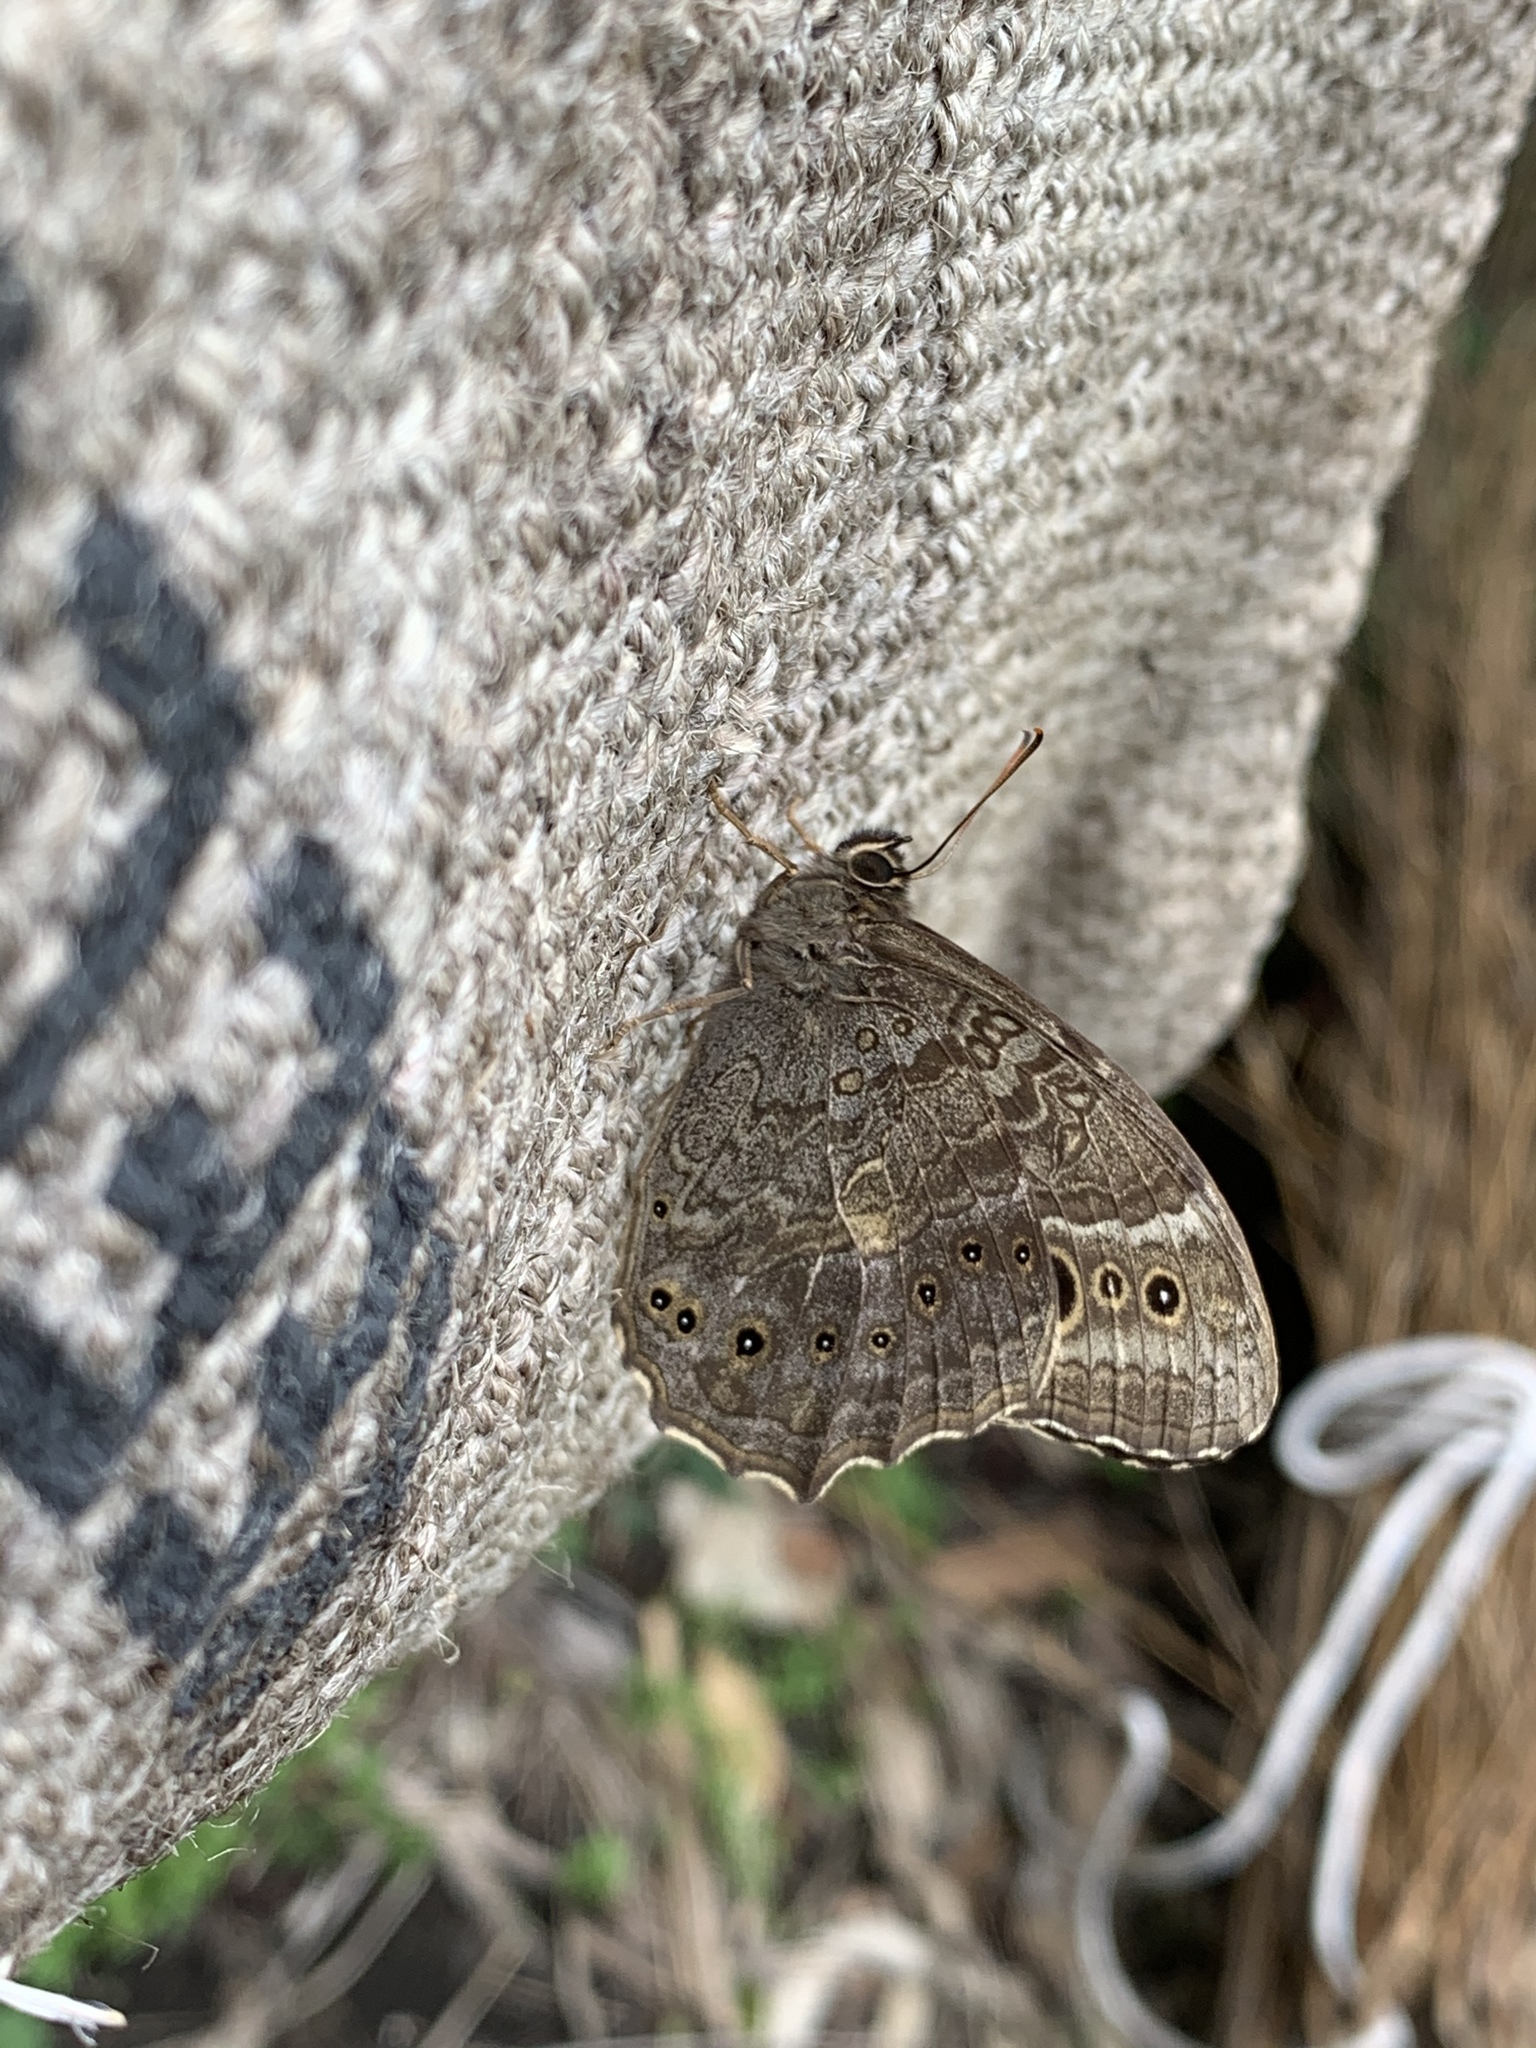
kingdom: Animalia
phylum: Arthropoda
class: Insecta
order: Lepidoptera
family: Nymphalidae
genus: Neope
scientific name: Neope muirheadii
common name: Black-spotted labyrinth
